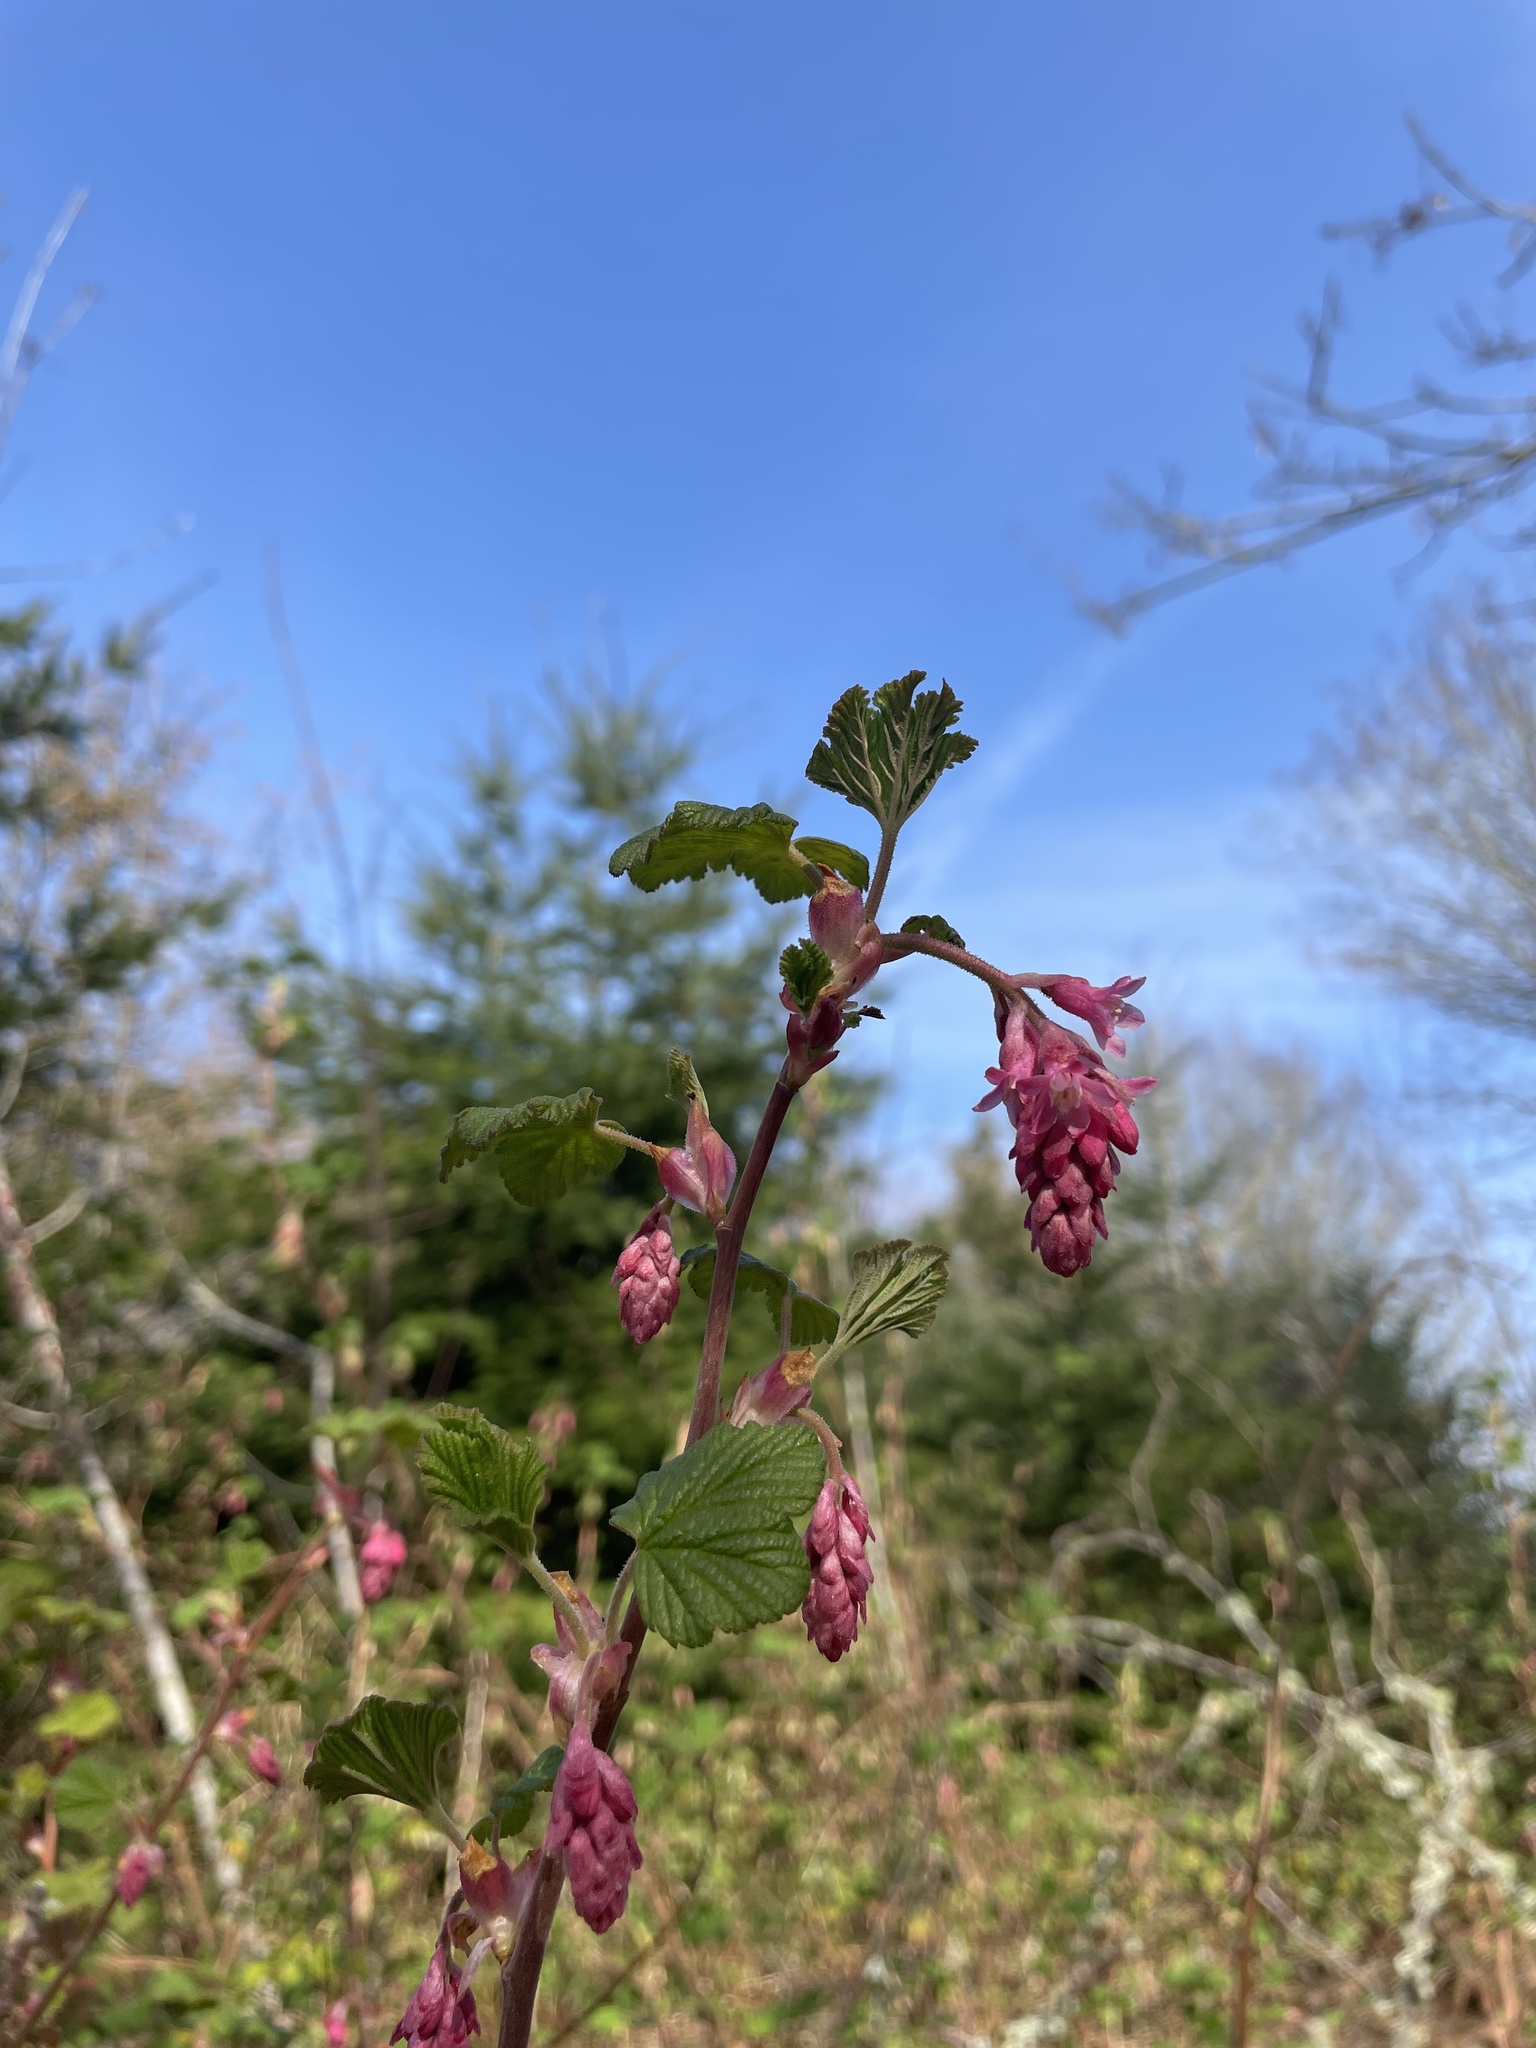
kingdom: Plantae
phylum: Tracheophyta
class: Magnoliopsida
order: Saxifragales
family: Grossulariaceae
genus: Ribes
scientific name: Ribes sanguineum
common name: Flowering currant
